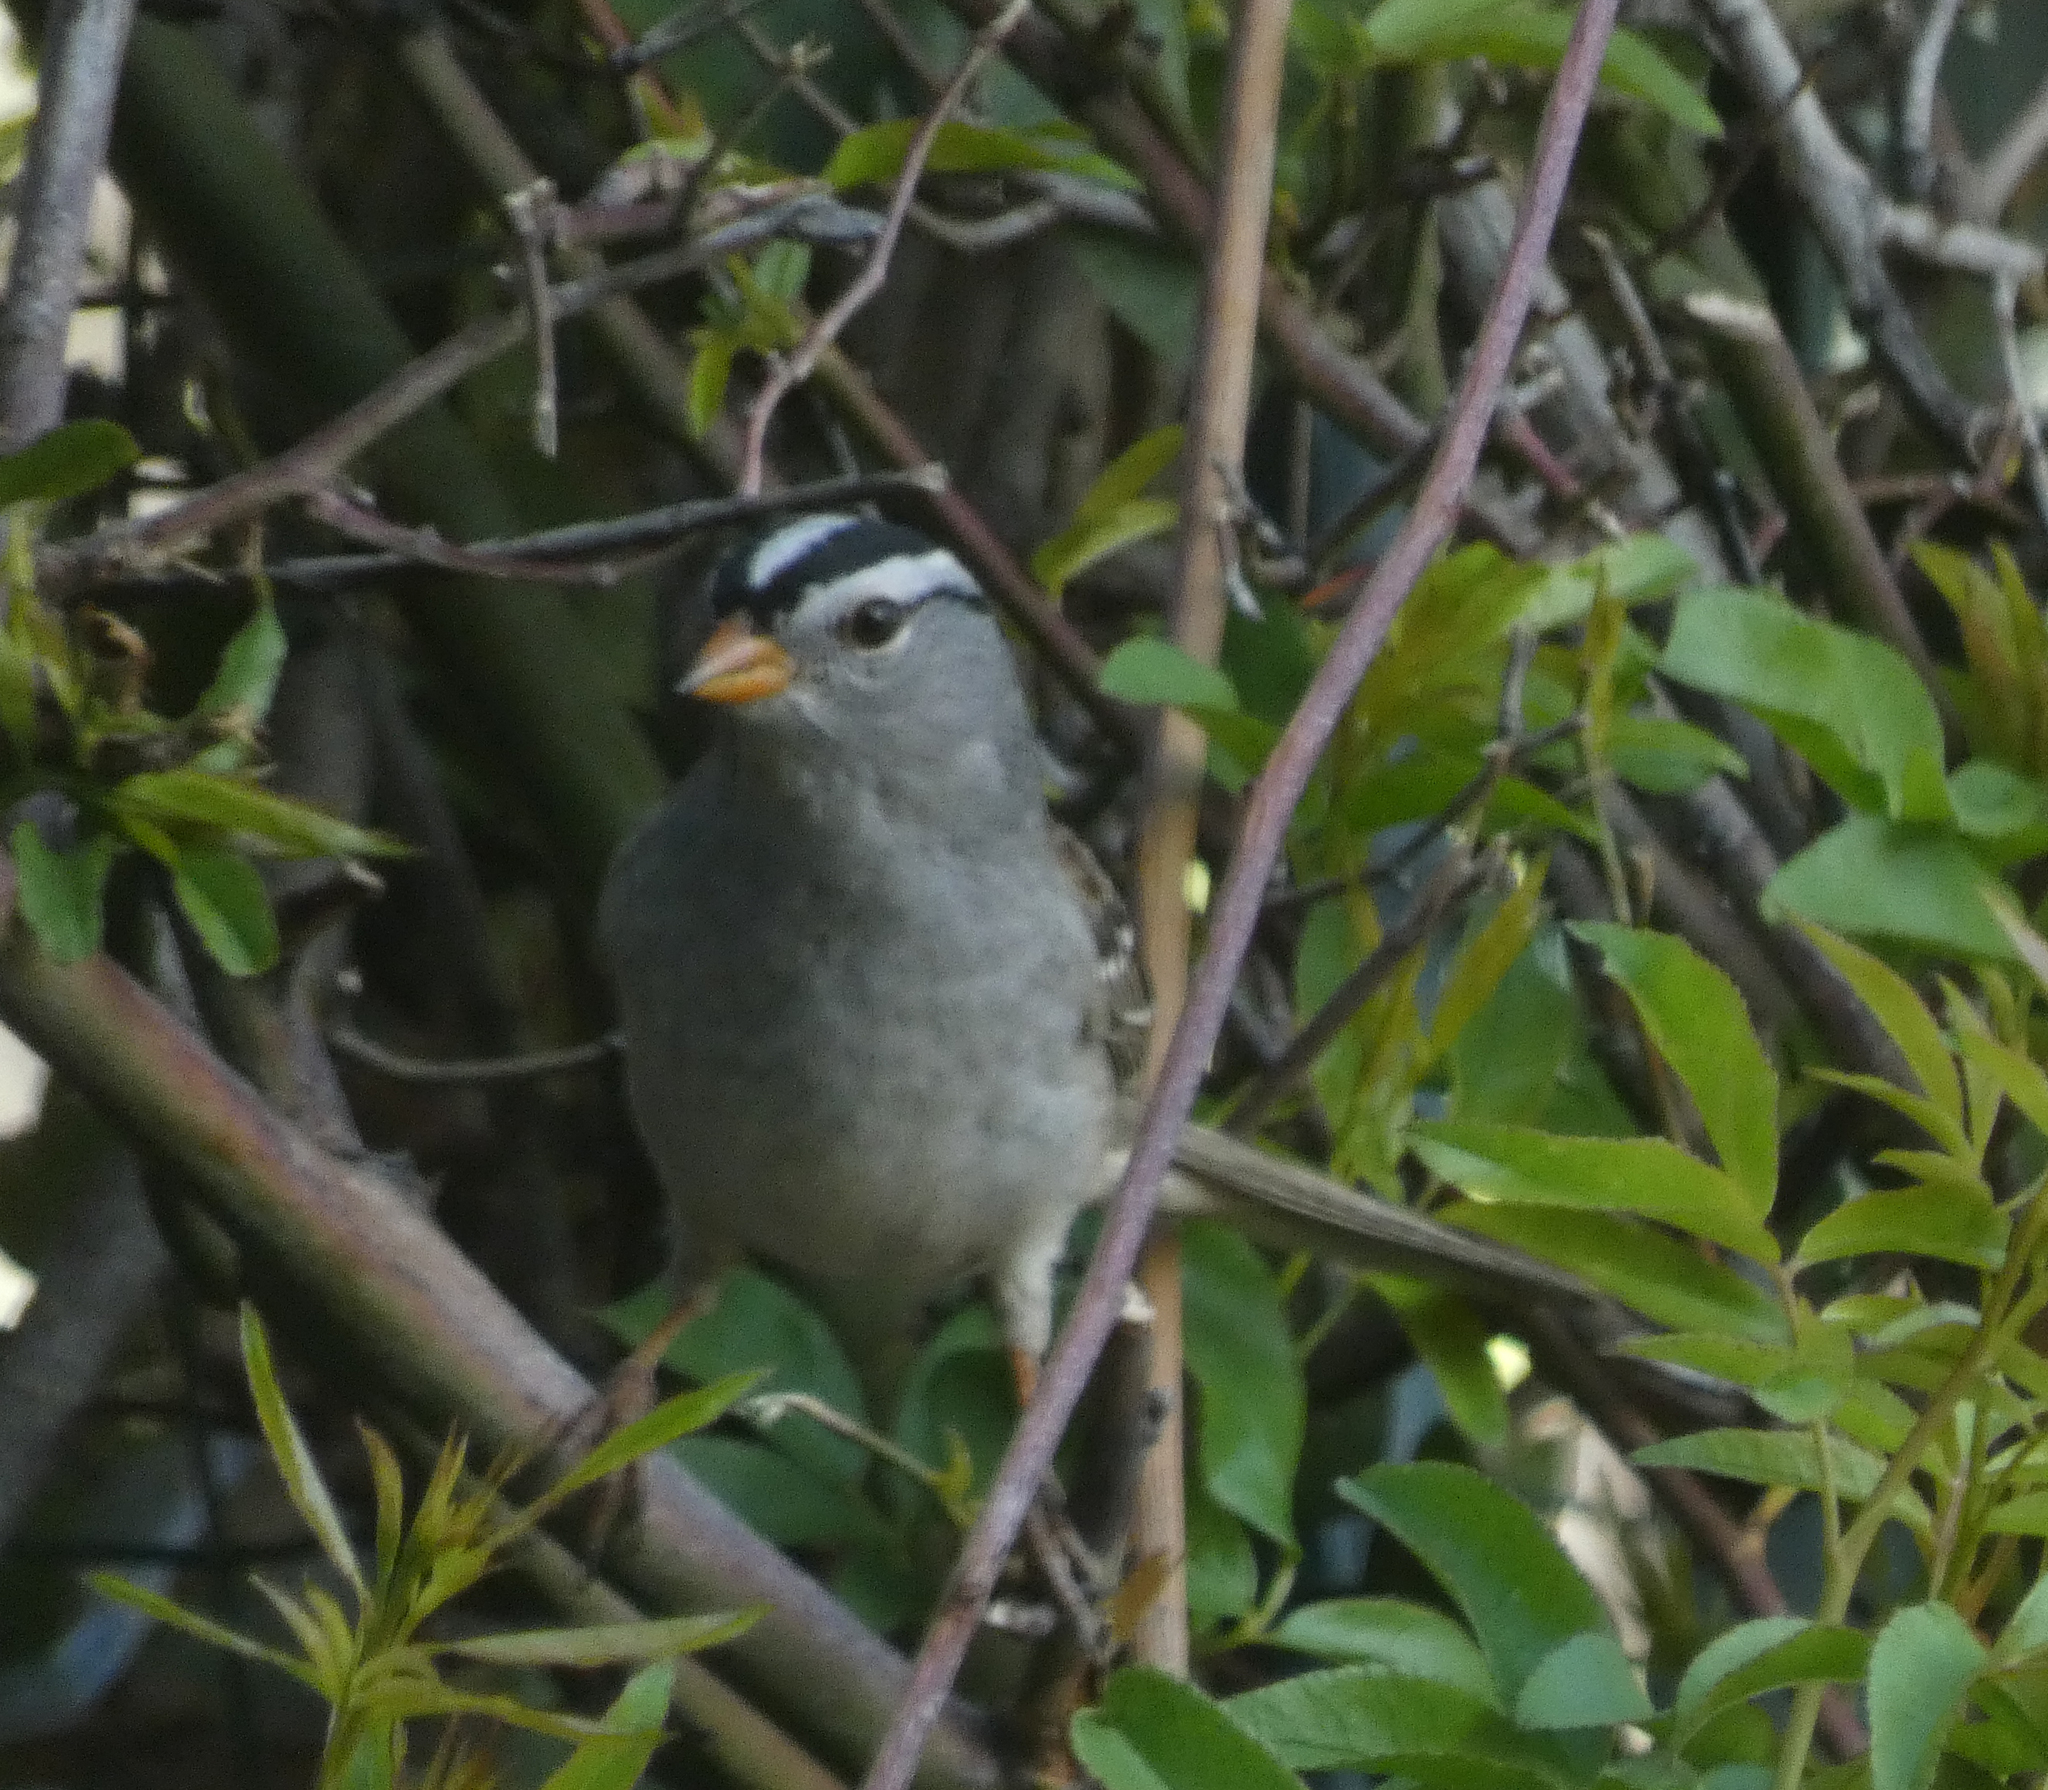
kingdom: Animalia
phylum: Chordata
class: Aves
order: Passeriformes
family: Passerellidae
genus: Zonotrichia
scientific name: Zonotrichia leucophrys
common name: White-crowned sparrow
